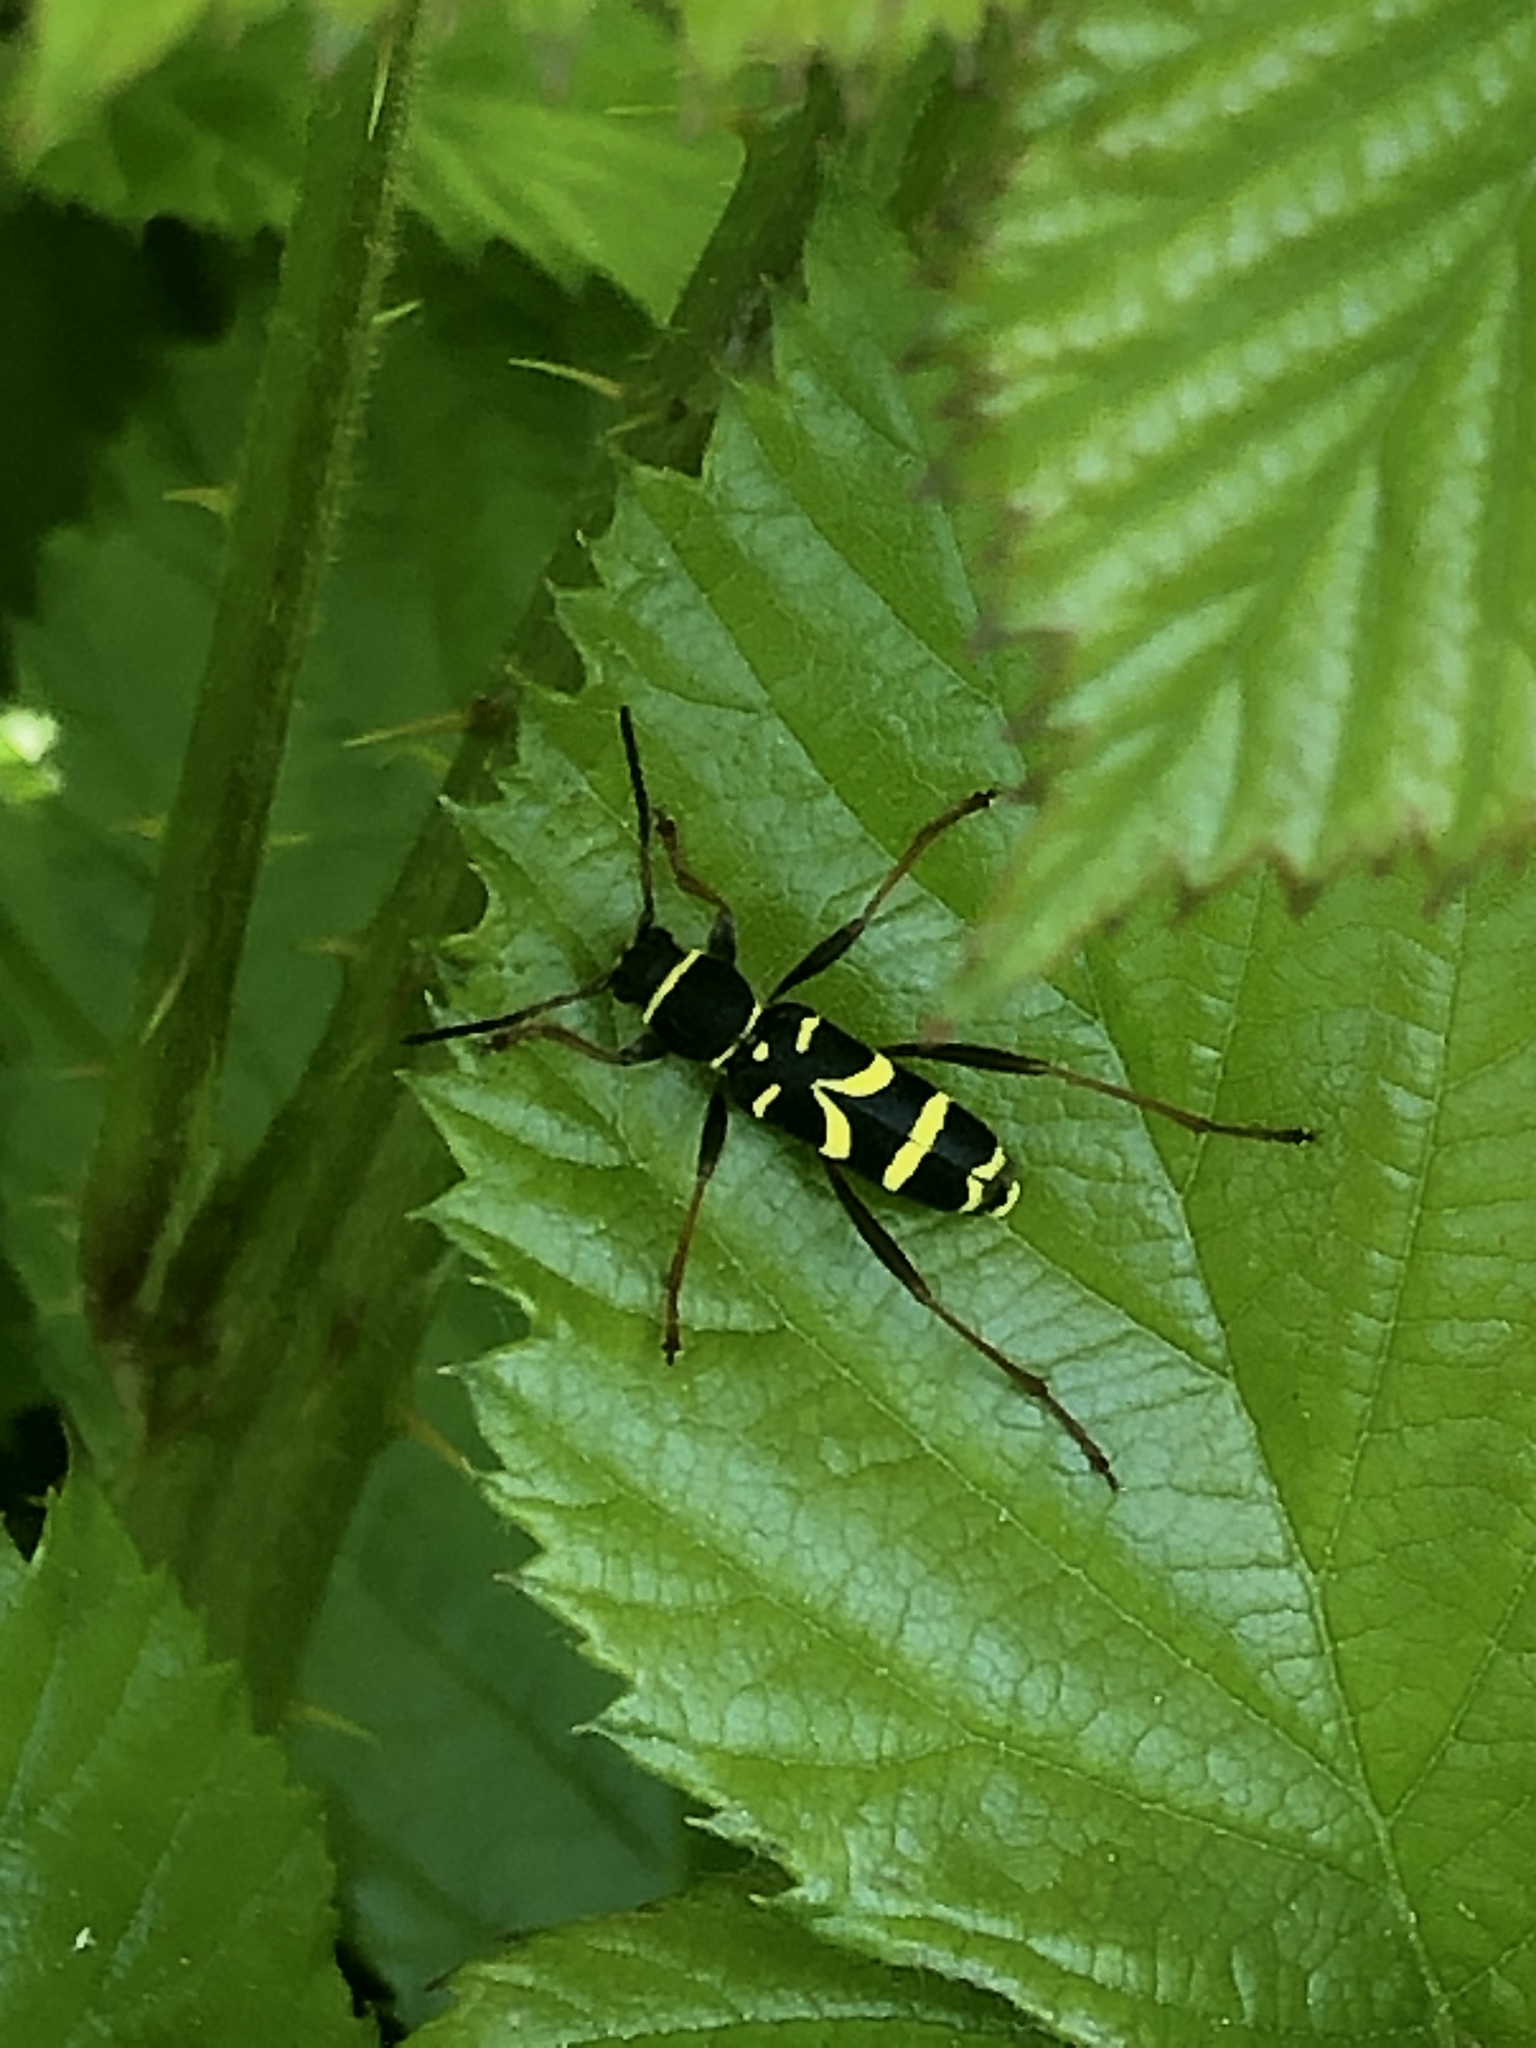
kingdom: Animalia
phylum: Arthropoda
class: Insecta
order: Coleoptera
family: Cerambycidae
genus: Clytus
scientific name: Clytus arietis
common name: Wasp beetle
